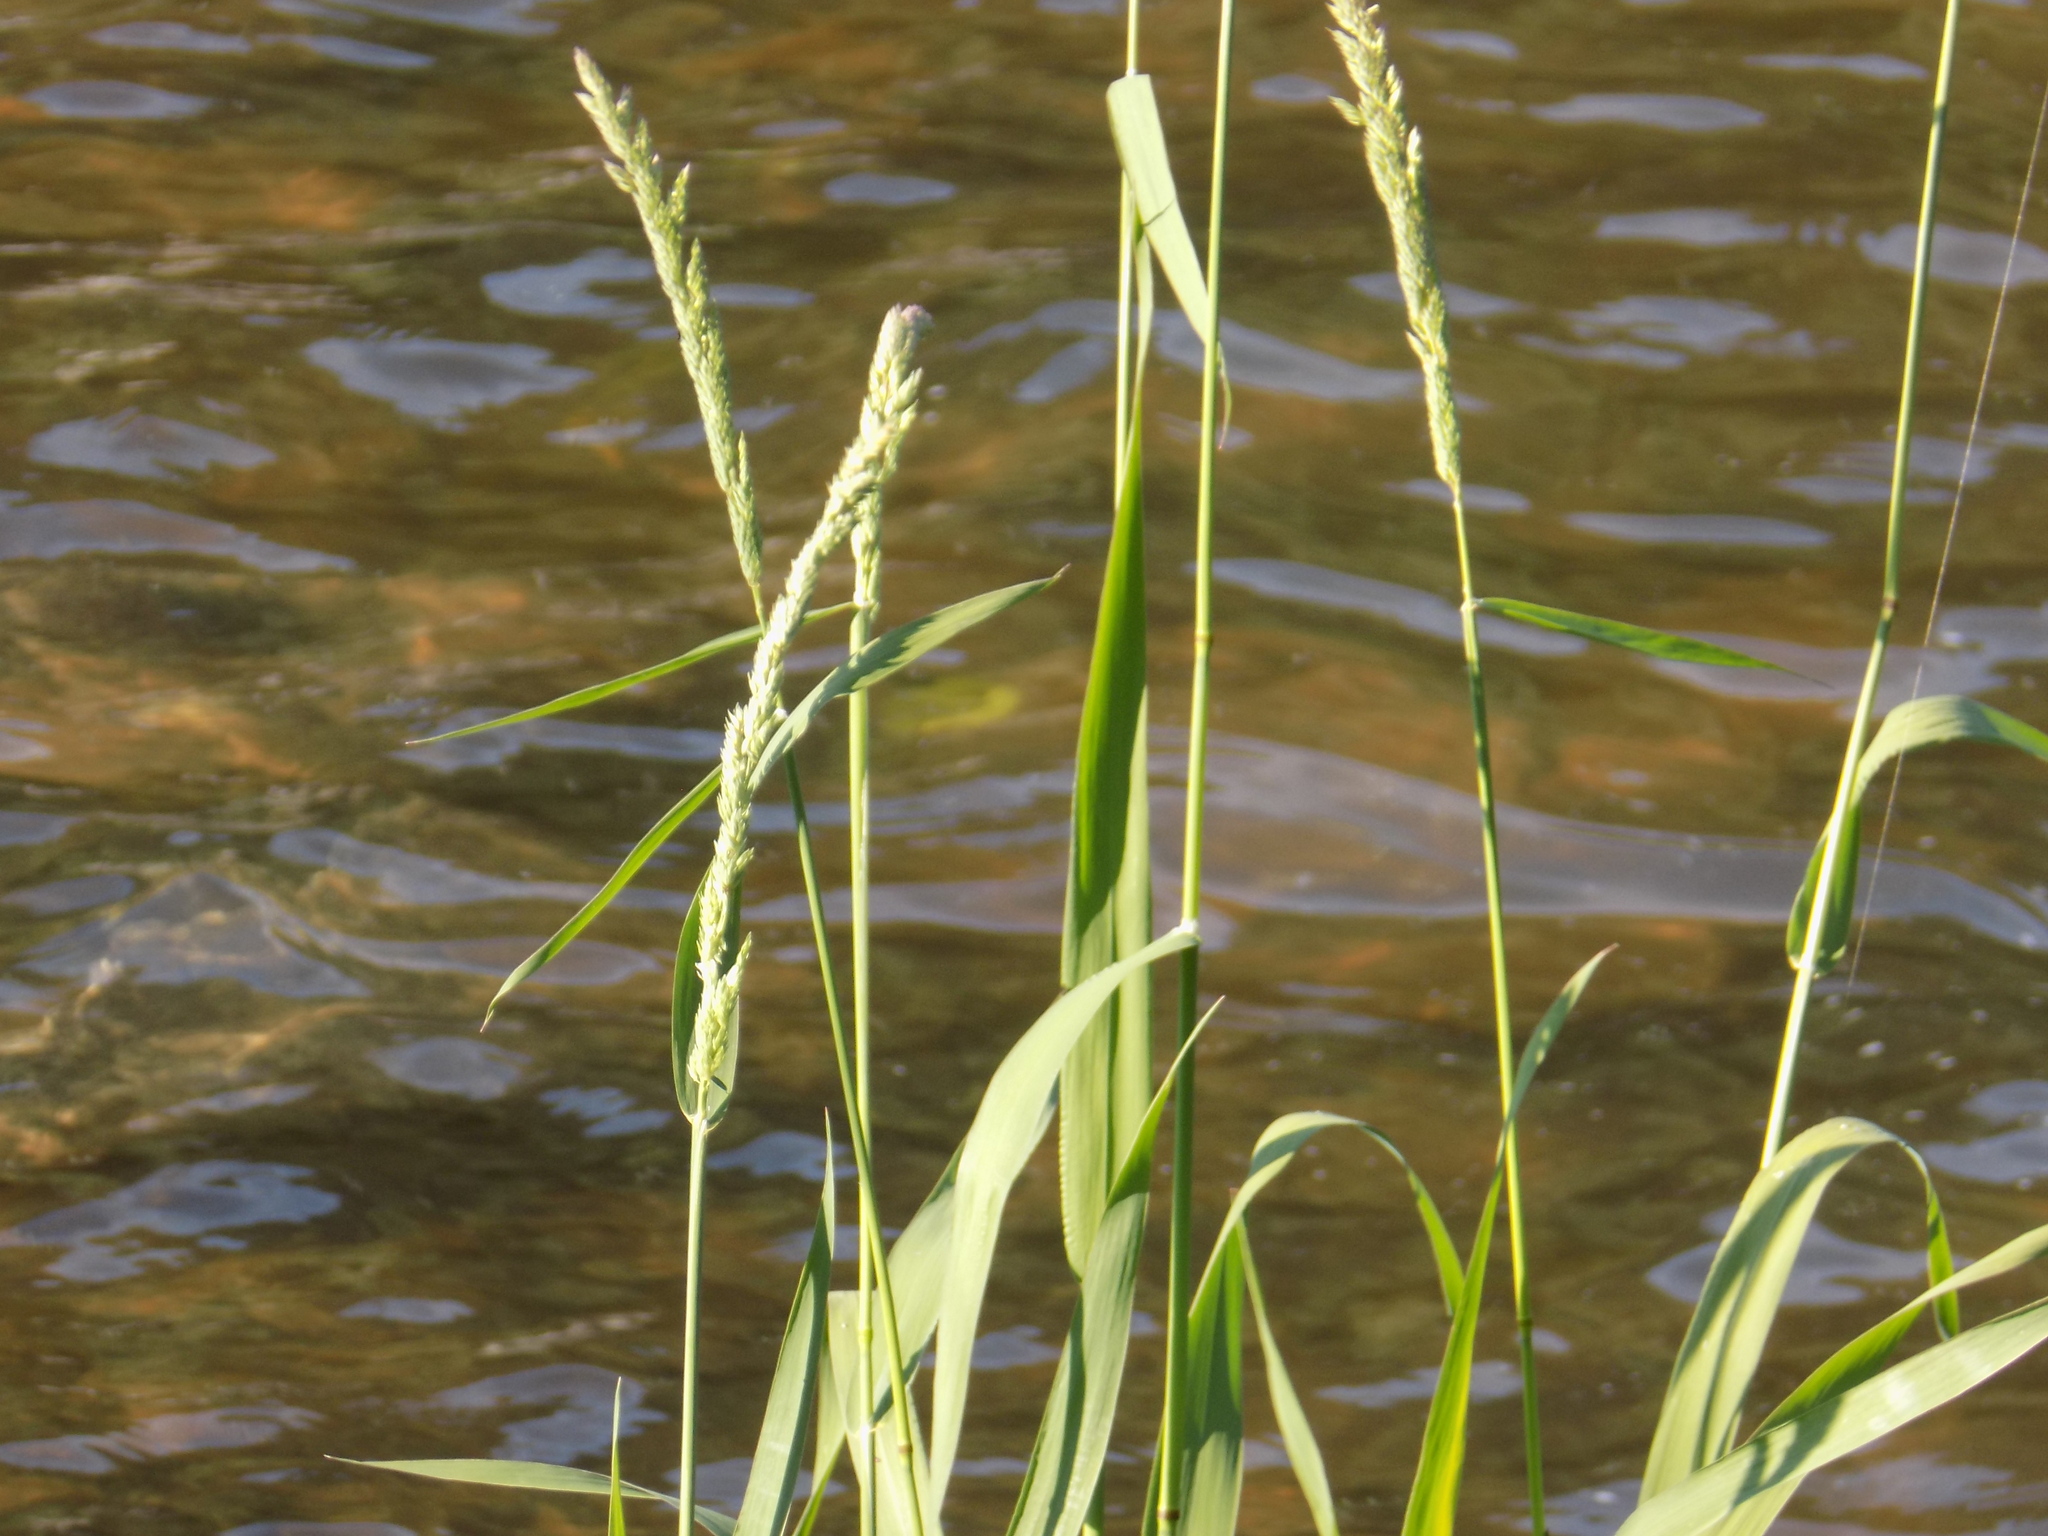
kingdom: Plantae
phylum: Tracheophyta
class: Liliopsida
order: Poales
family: Poaceae
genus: Phalaris
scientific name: Phalaris arundinacea
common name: Reed canary-grass
